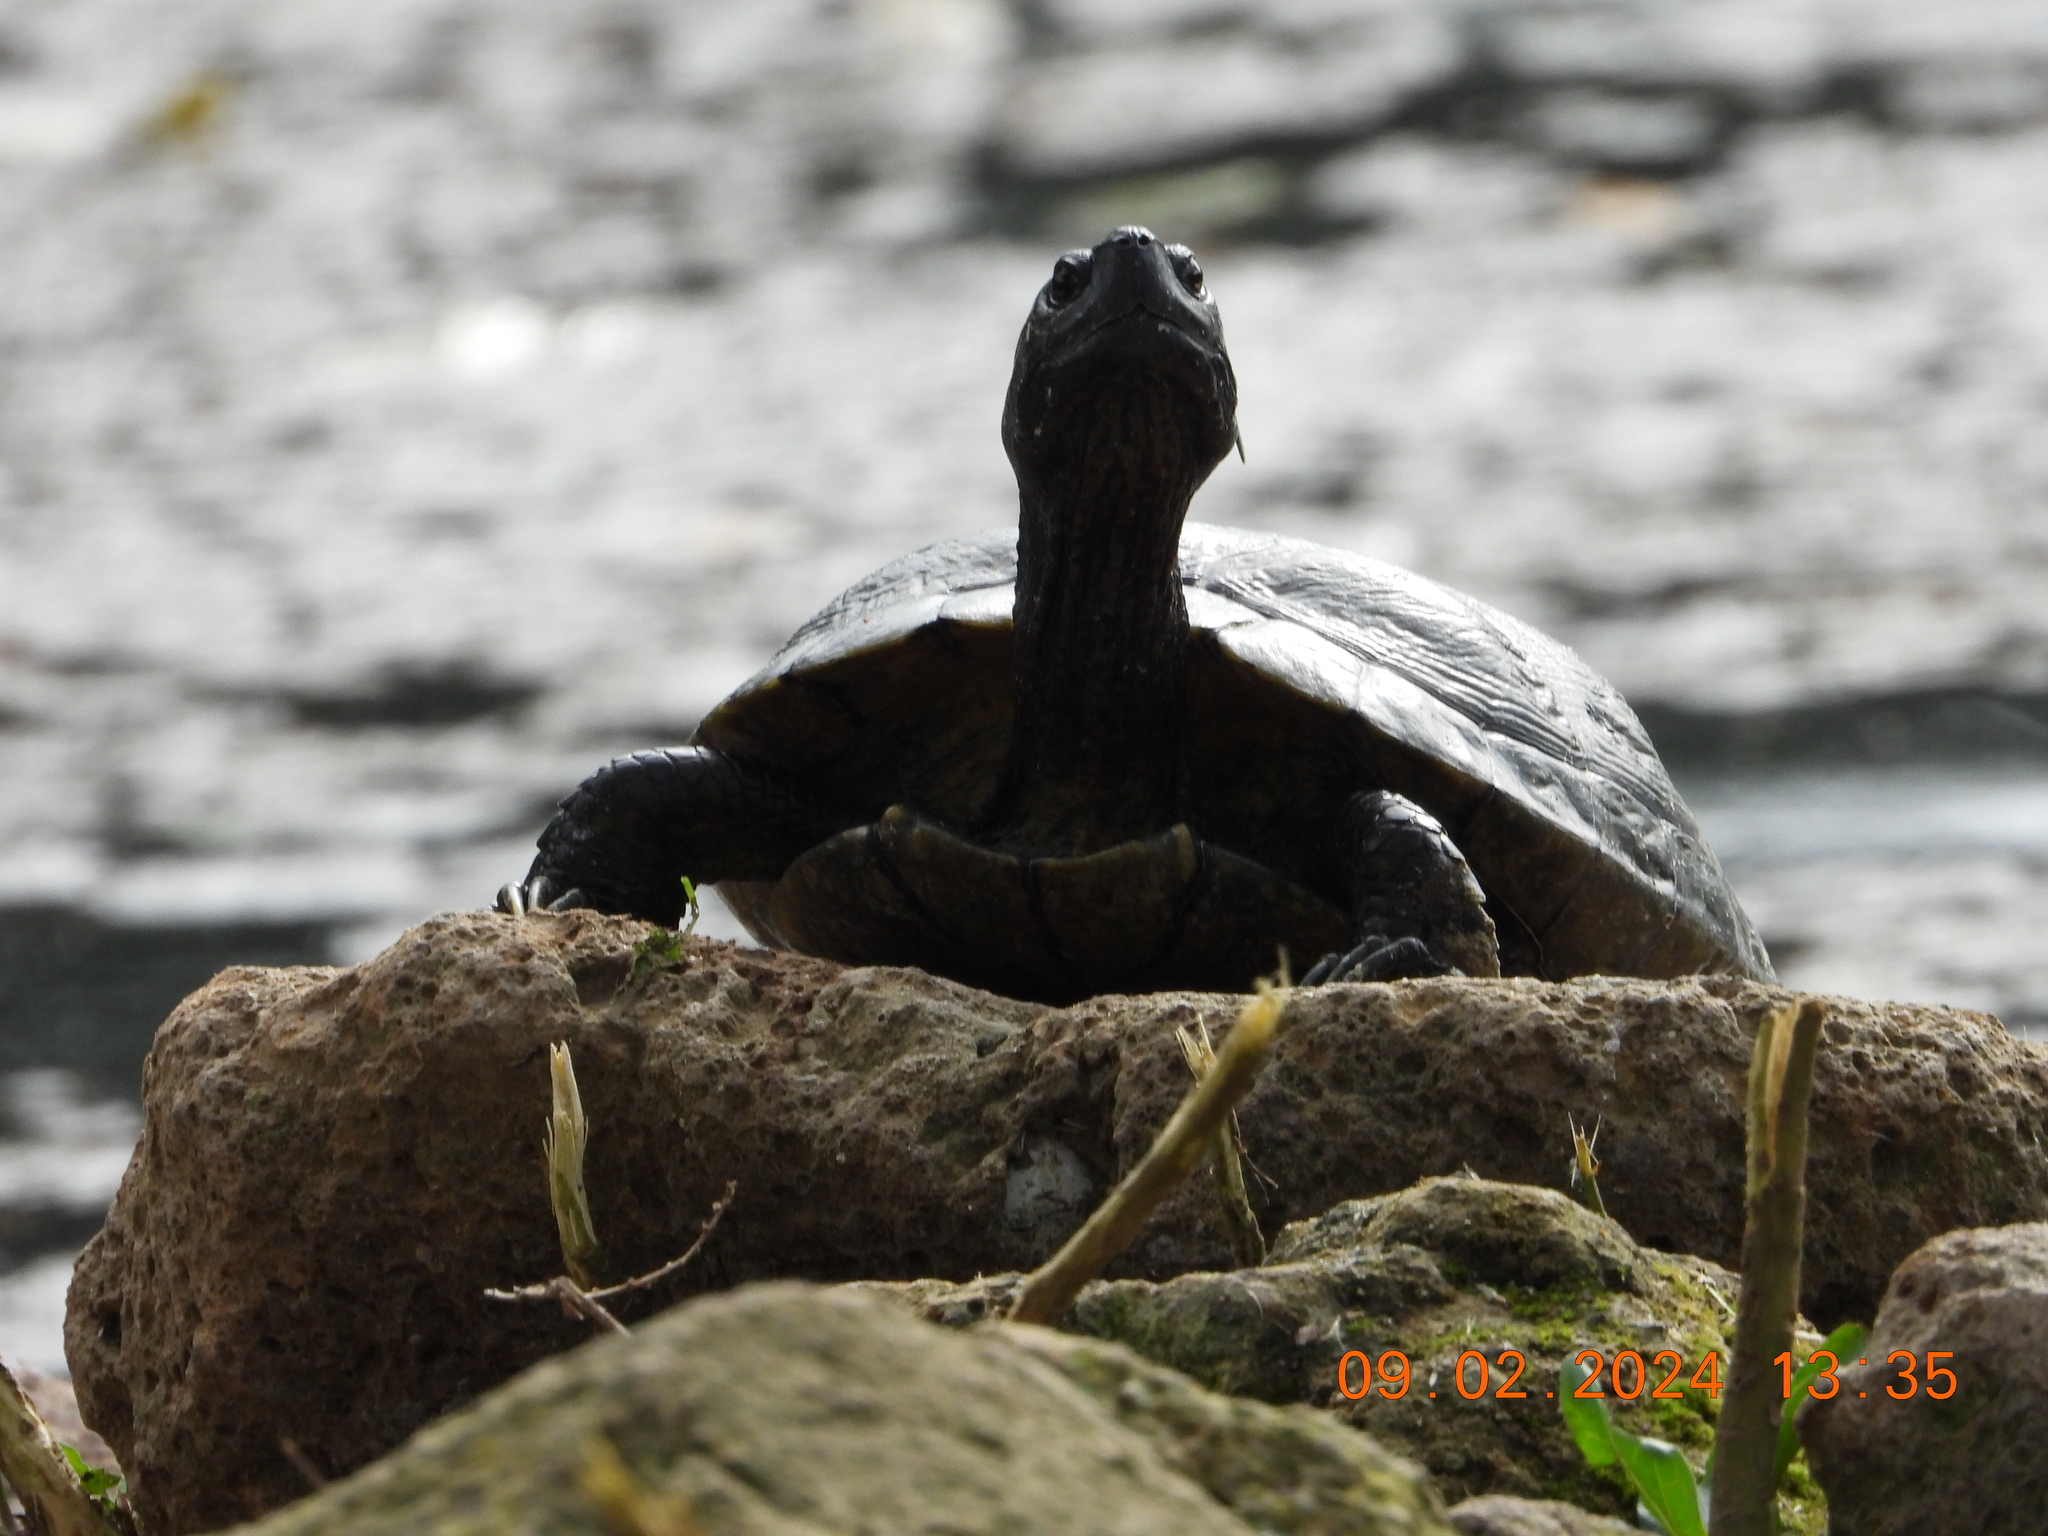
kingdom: Animalia
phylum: Chordata
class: Testudines
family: Geoemydidae
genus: Mauremys
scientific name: Mauremys reevesii
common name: Chinese pond turtle
